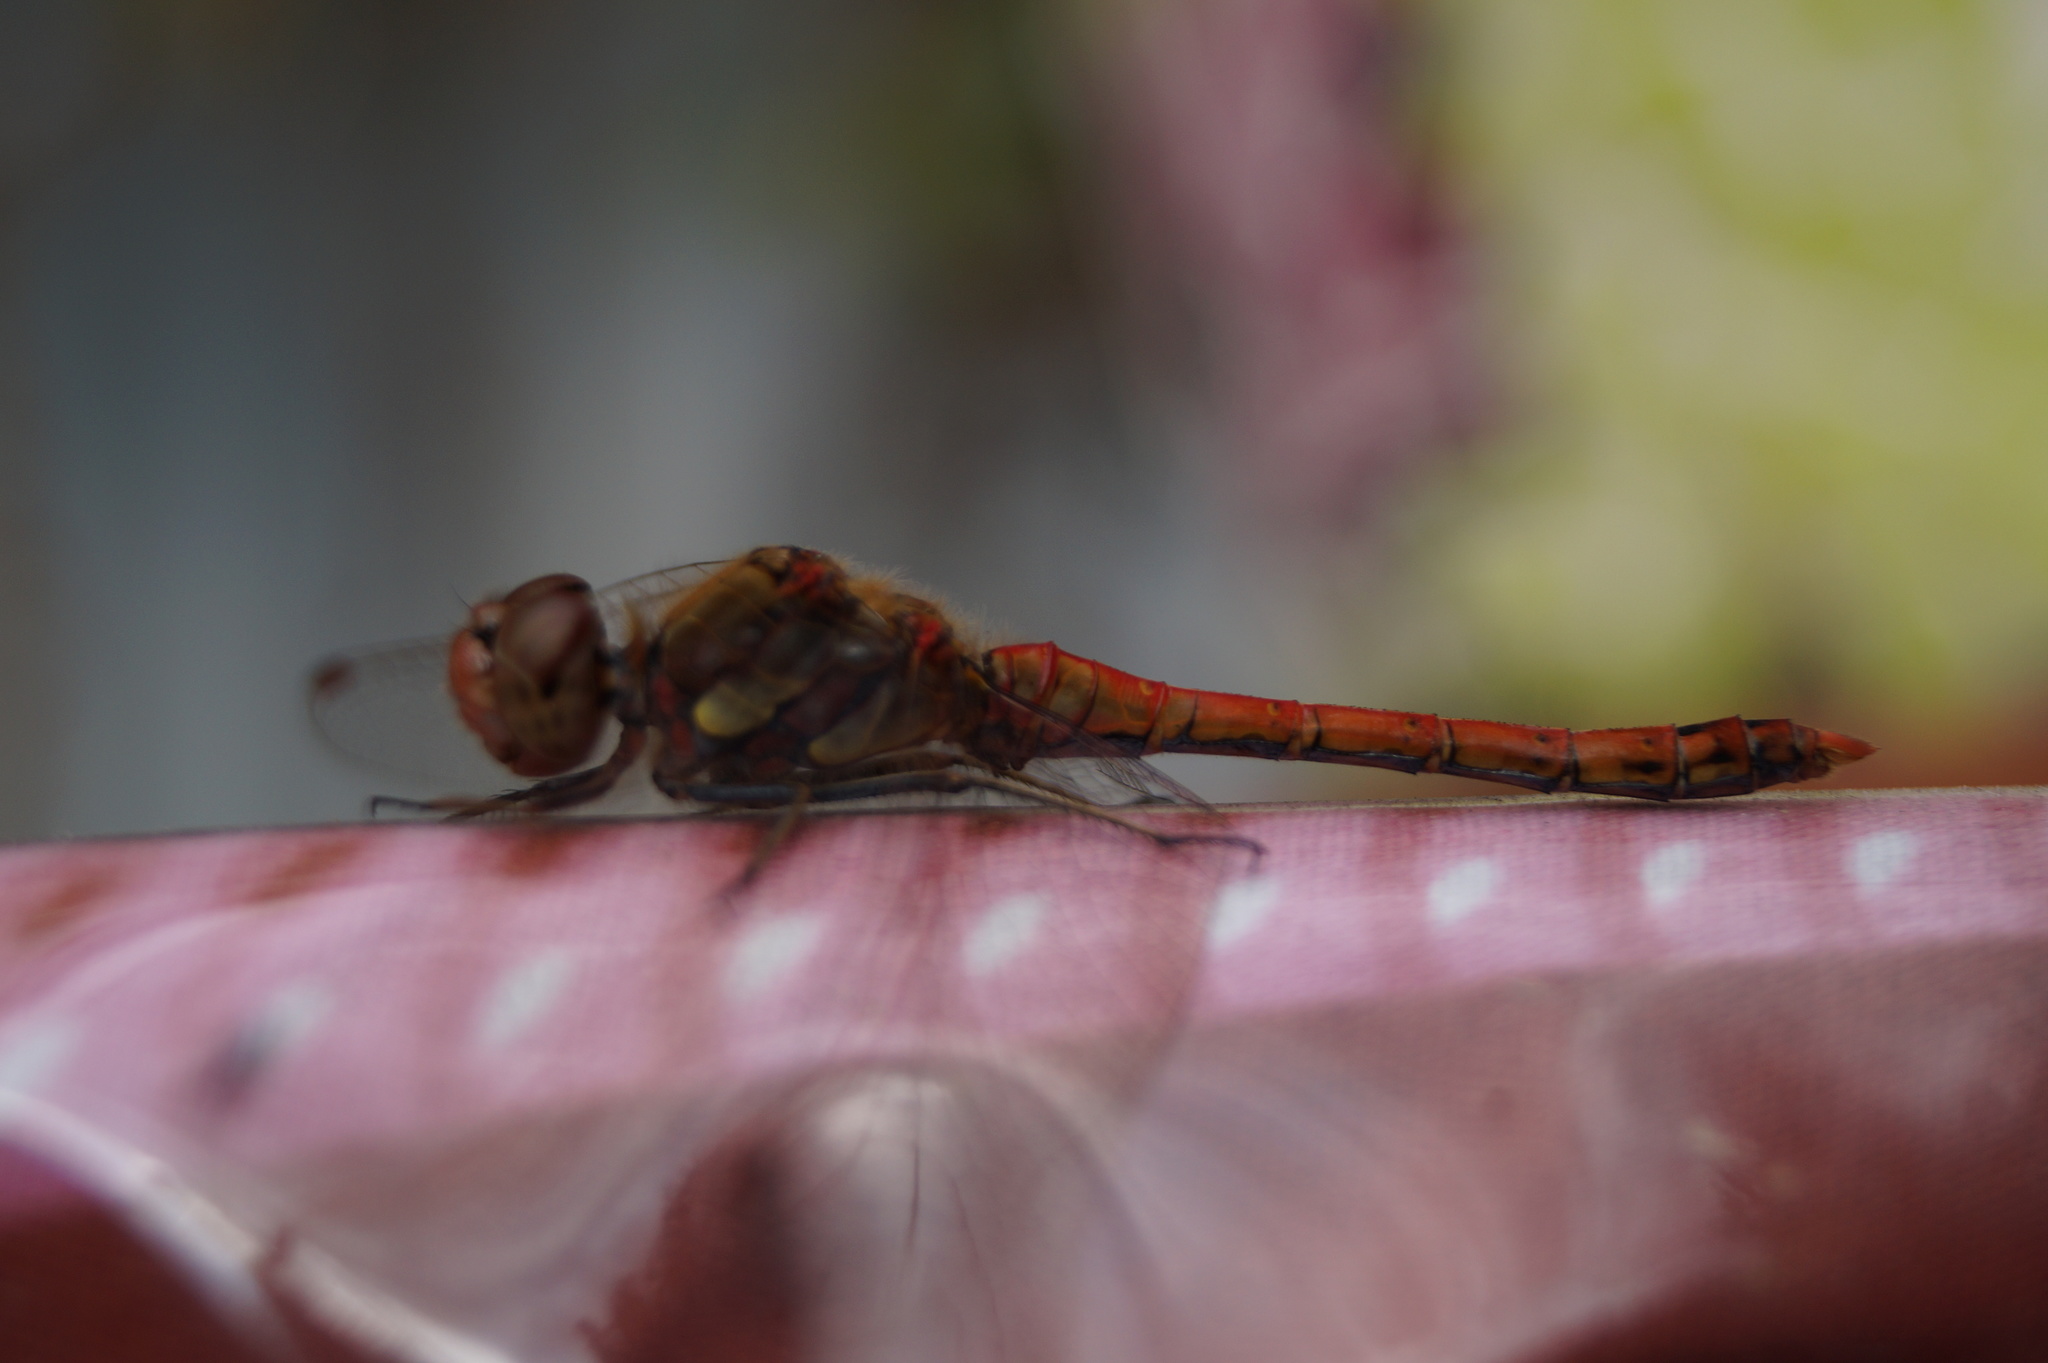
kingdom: Animalia
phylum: Arthropoda
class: Insecta
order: Odonata
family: Libellulidae
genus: Sympetrum
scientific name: Sympetrum striolatum
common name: Common darter
